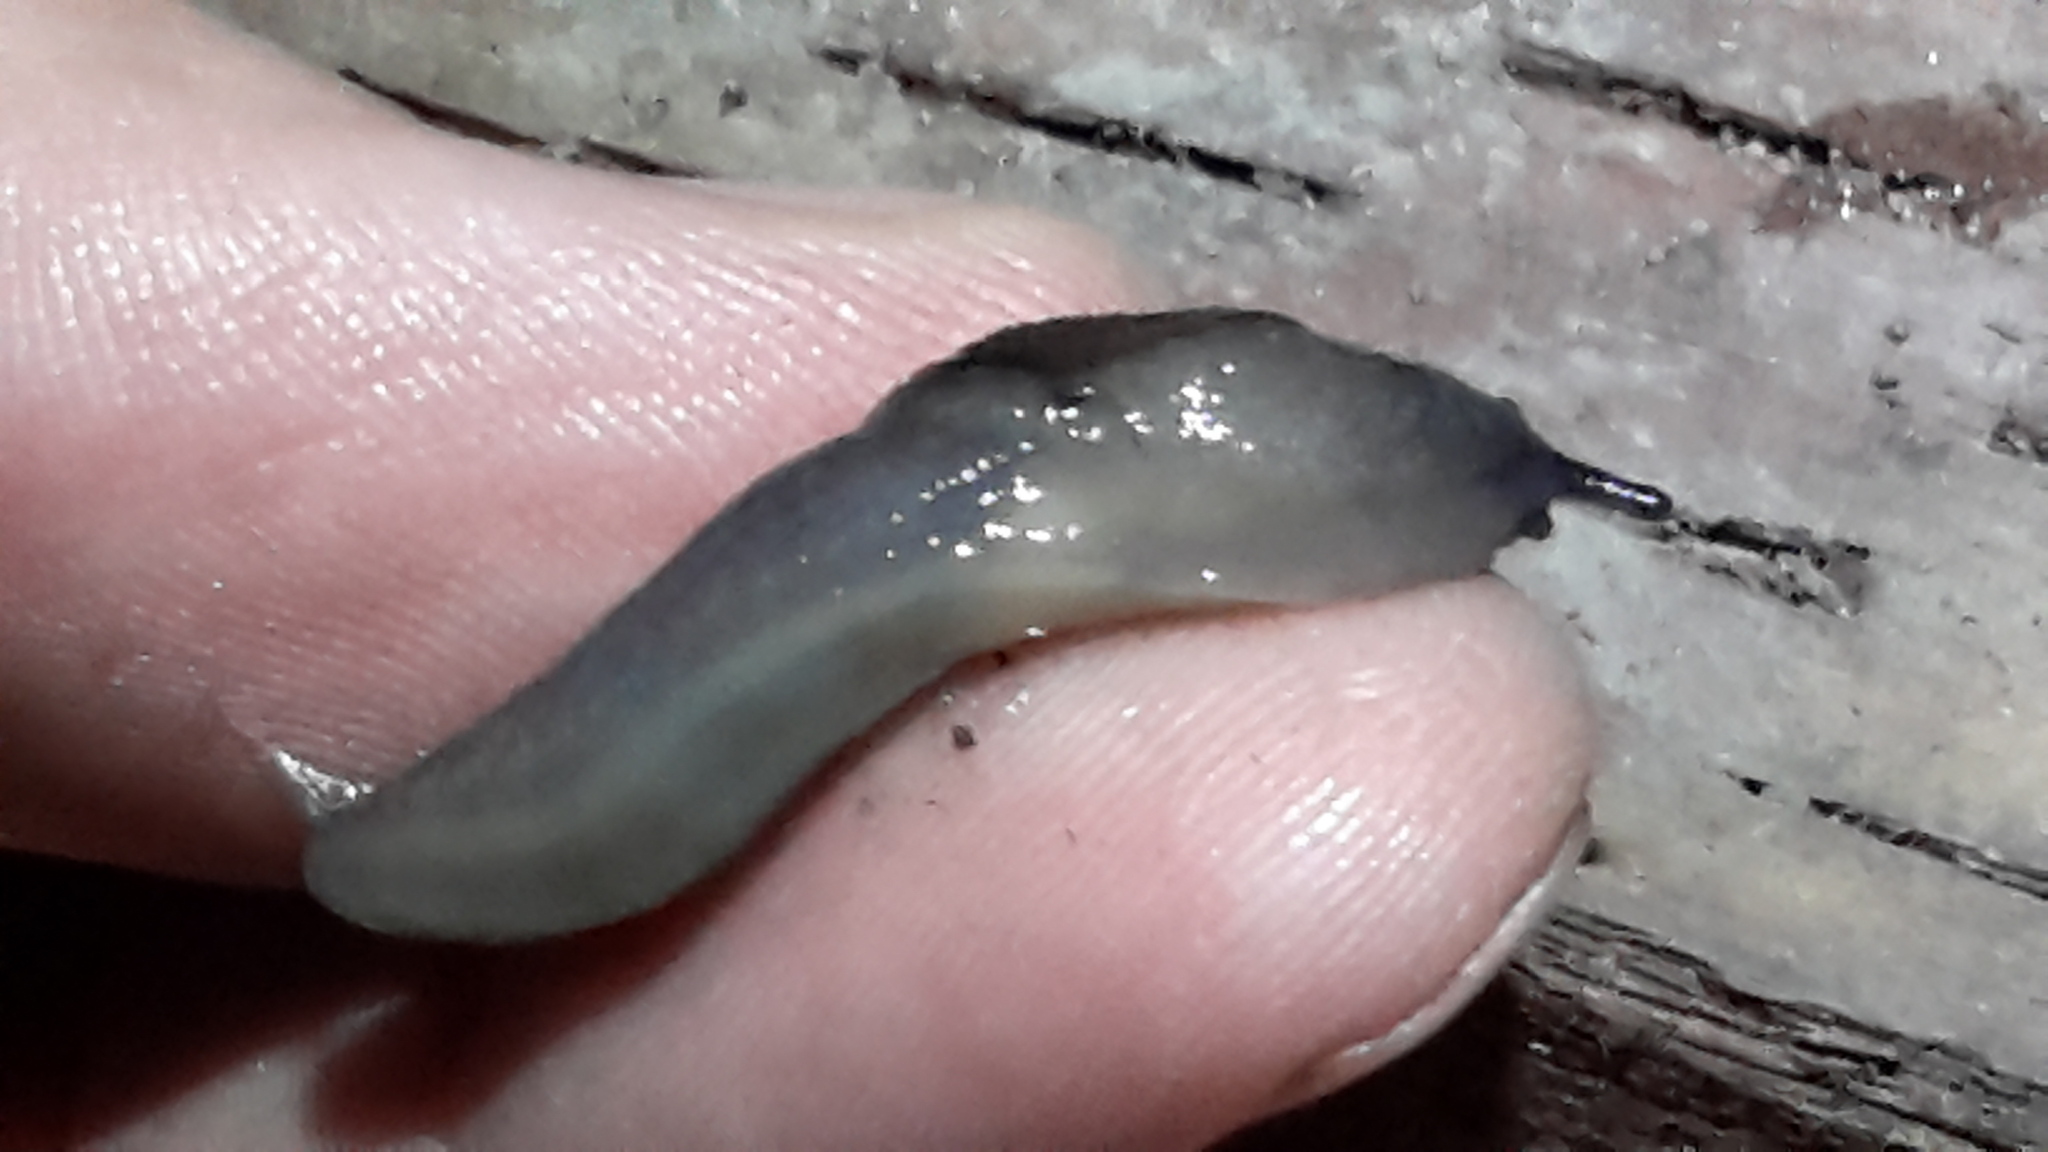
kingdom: Animalia
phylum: Mollusca
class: Gastropoda
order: Stylommatophora
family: Milacidae
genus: Milax
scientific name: Milax gagates
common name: Greenhouse slug
